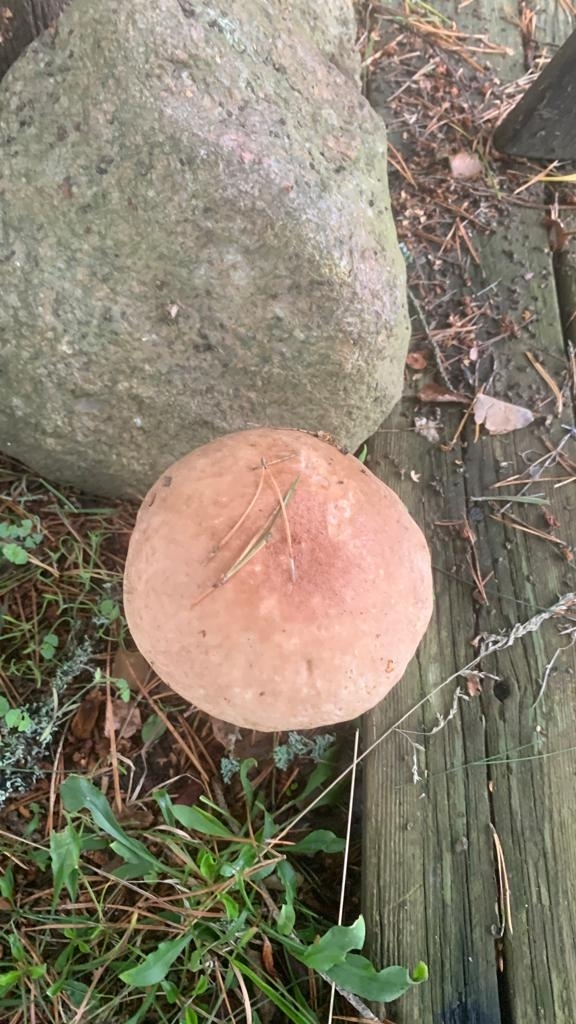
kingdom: Fungi
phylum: Basidiomycota
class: Agaricomycetes
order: Boletales
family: Boletaceae
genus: Leccinum
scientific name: Leccinum versipelle
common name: Orange birch bolete
